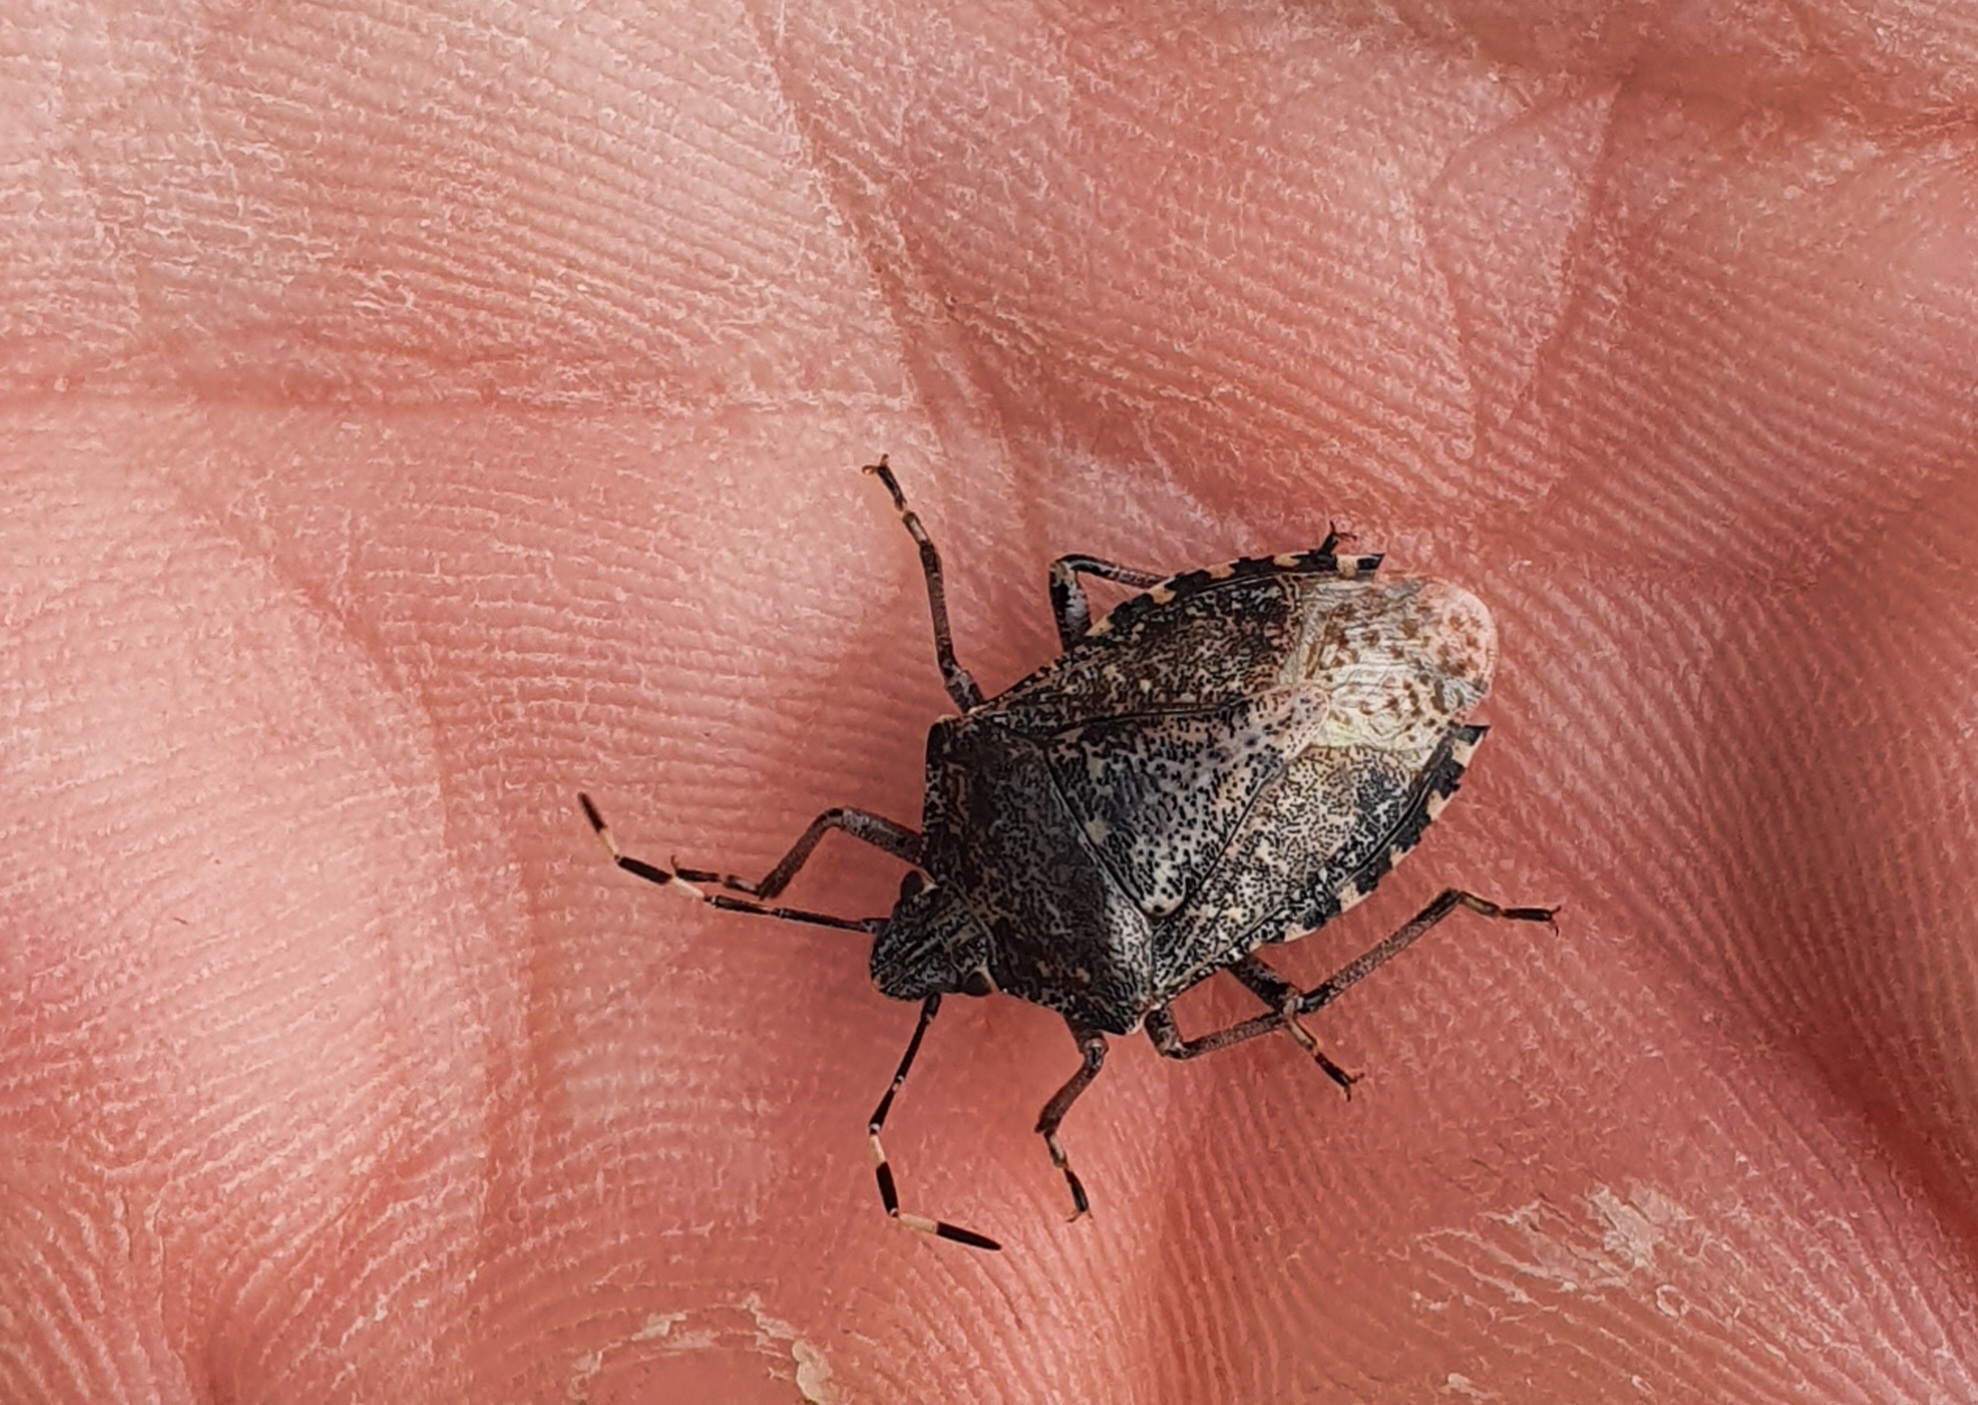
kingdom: Animalia
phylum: Arthropoda
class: Insecta
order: Hemiptera
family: Pentatomidae
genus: Rhaphigaster
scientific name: Rhaphigaster nebulosa
